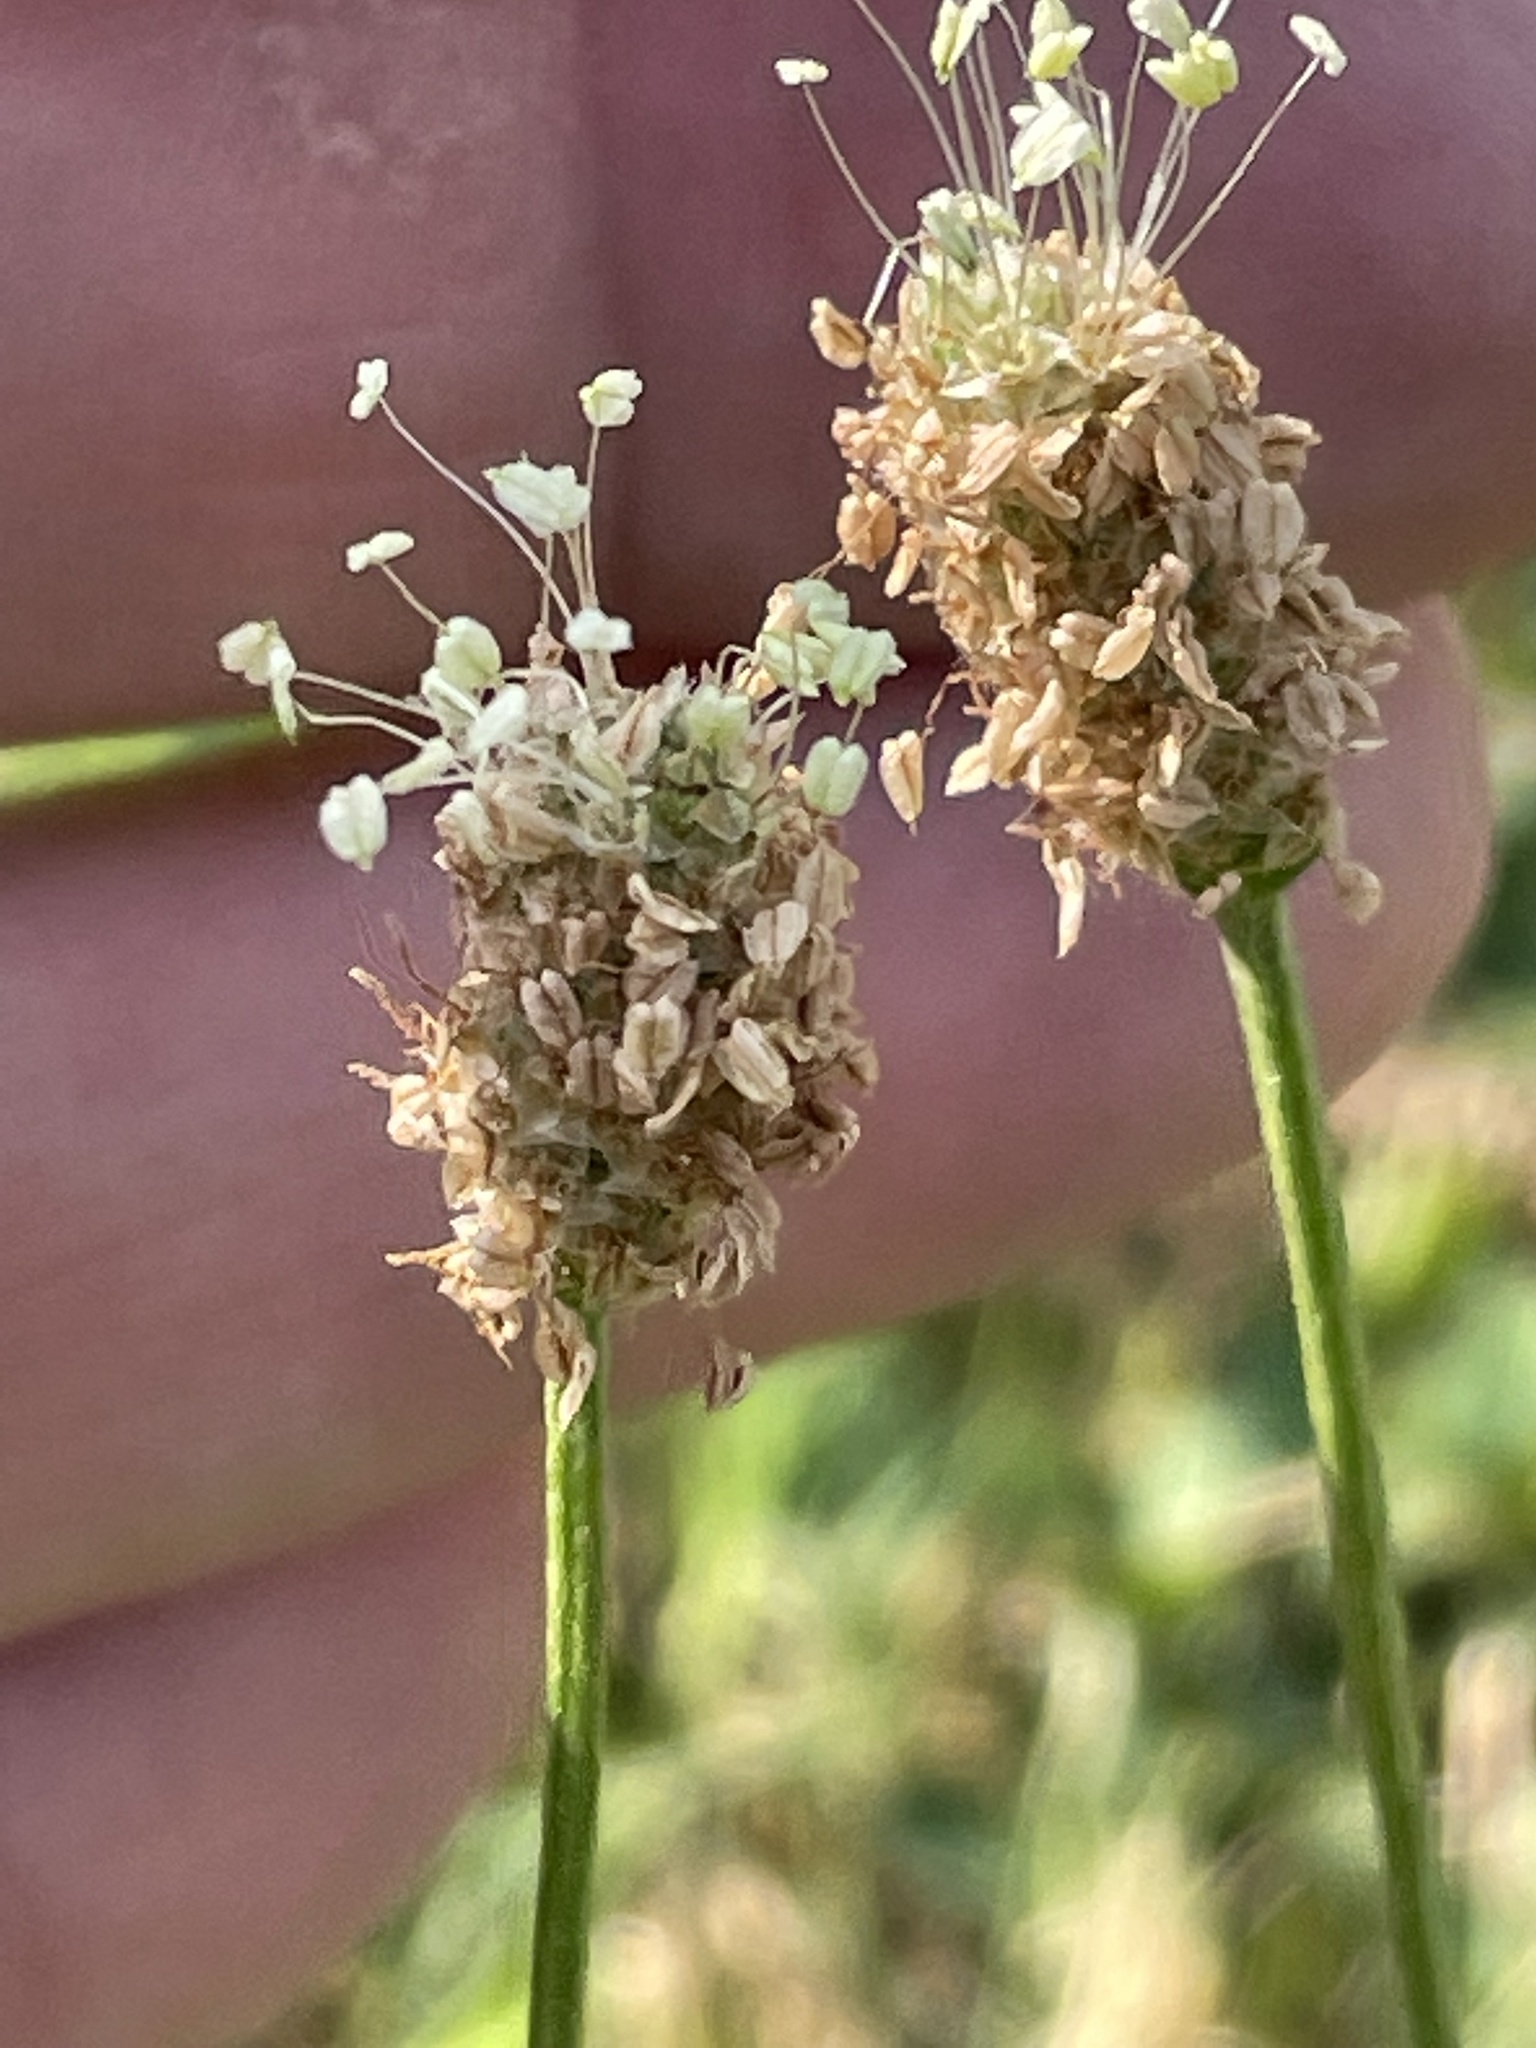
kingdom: Plantae
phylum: Tracheophyta
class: Magnoliopsida
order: Lamiales
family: Plantaginaceae
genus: Plantago
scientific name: Plantago lanceolata
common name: Ribwort plantain
